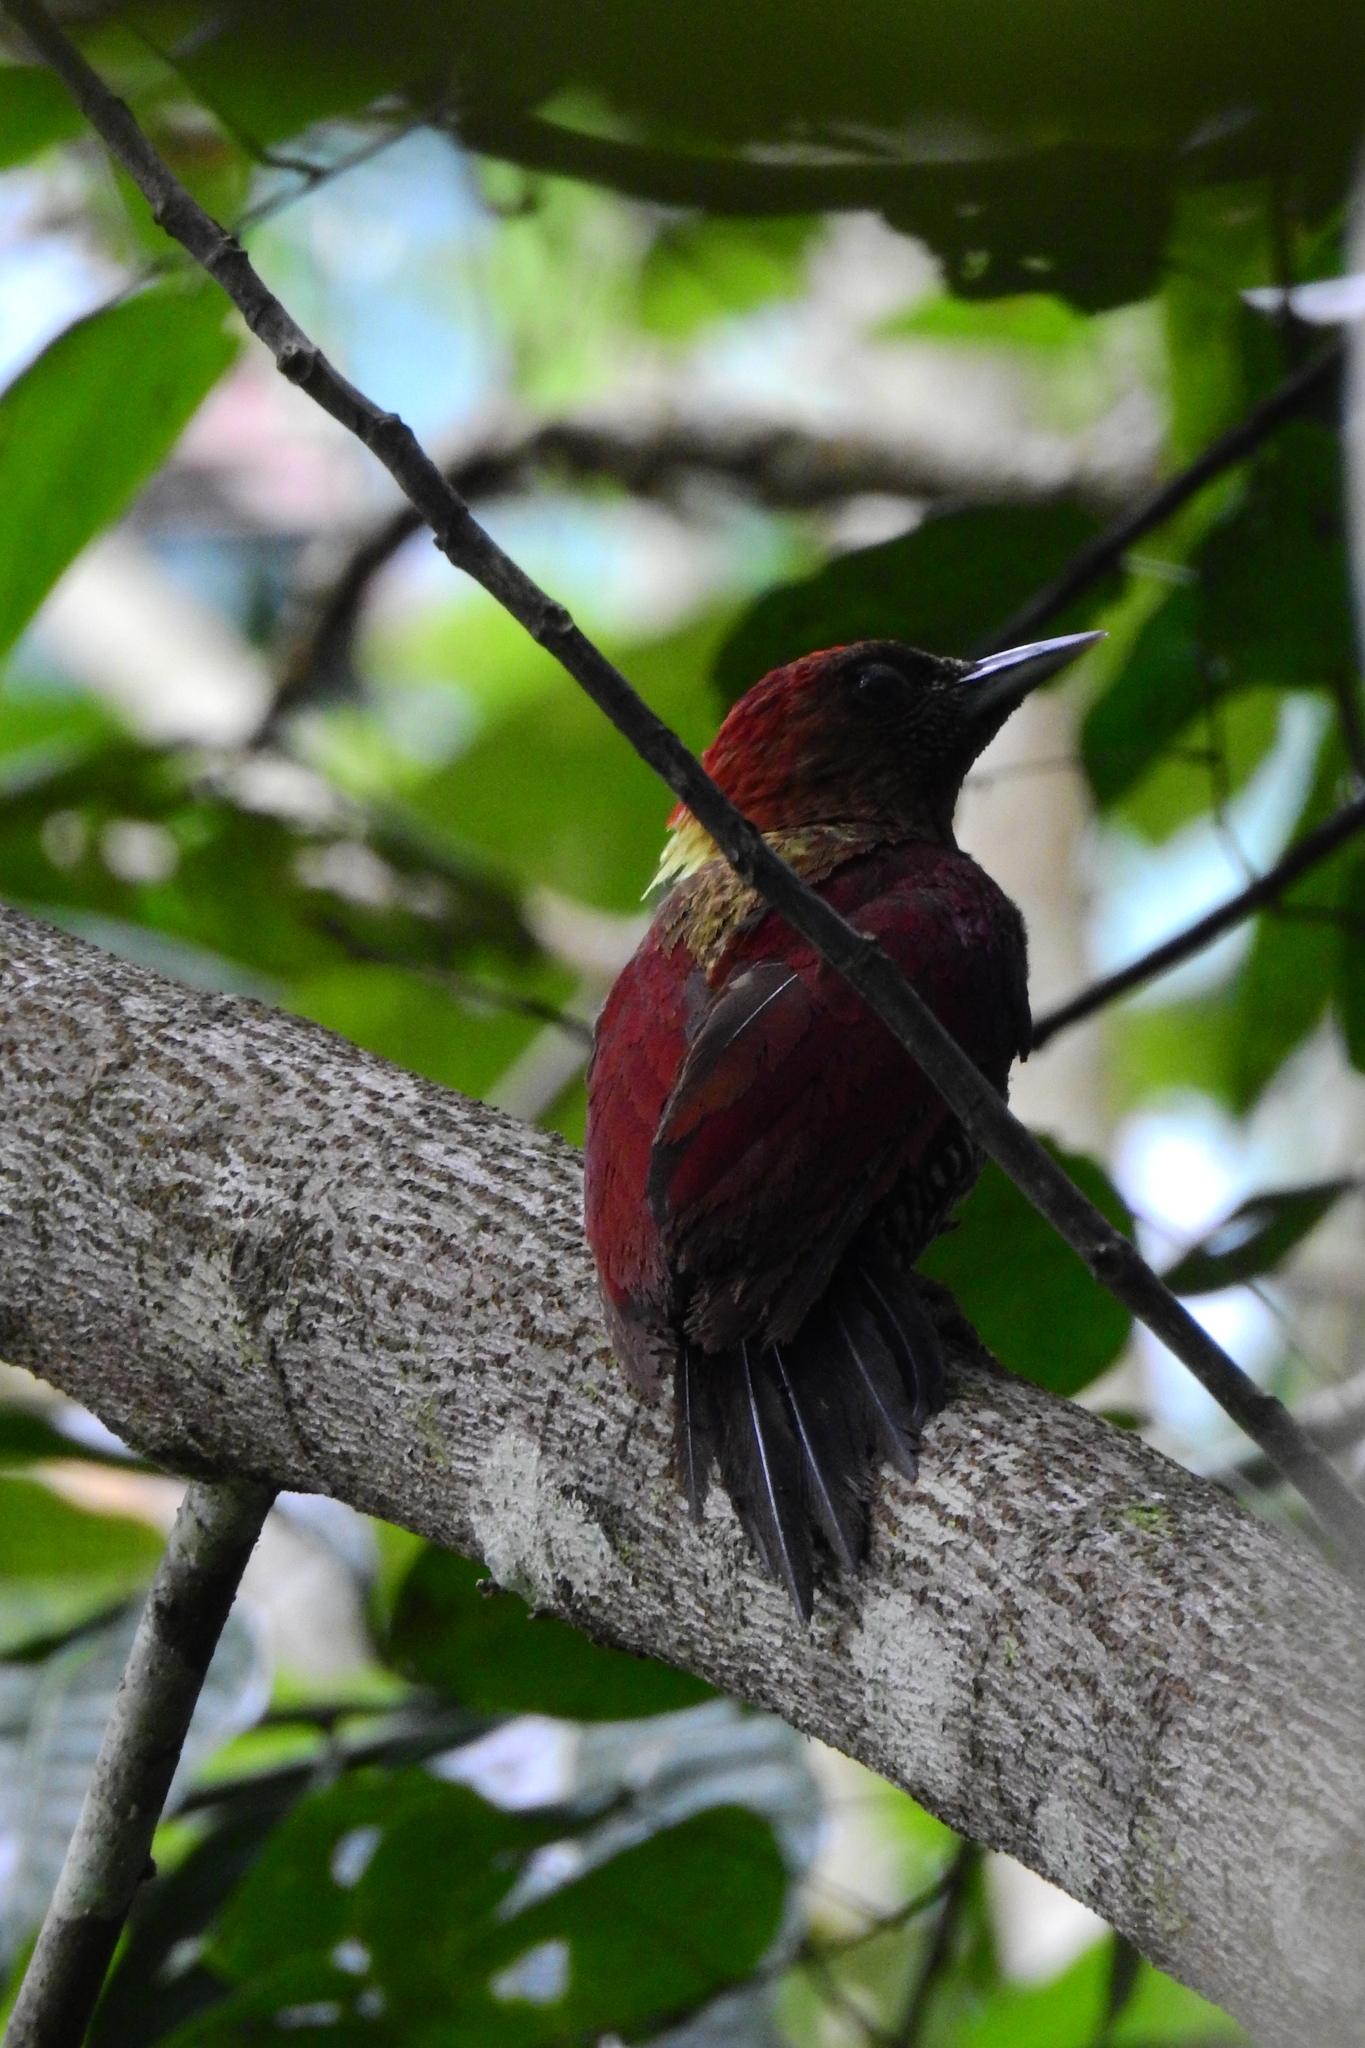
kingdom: Animalia
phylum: Chordata
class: Aves
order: Piciformes
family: Picidae
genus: Chrysophlegma
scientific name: Chrysophlegma miniaceum
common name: Banded woodpecker
